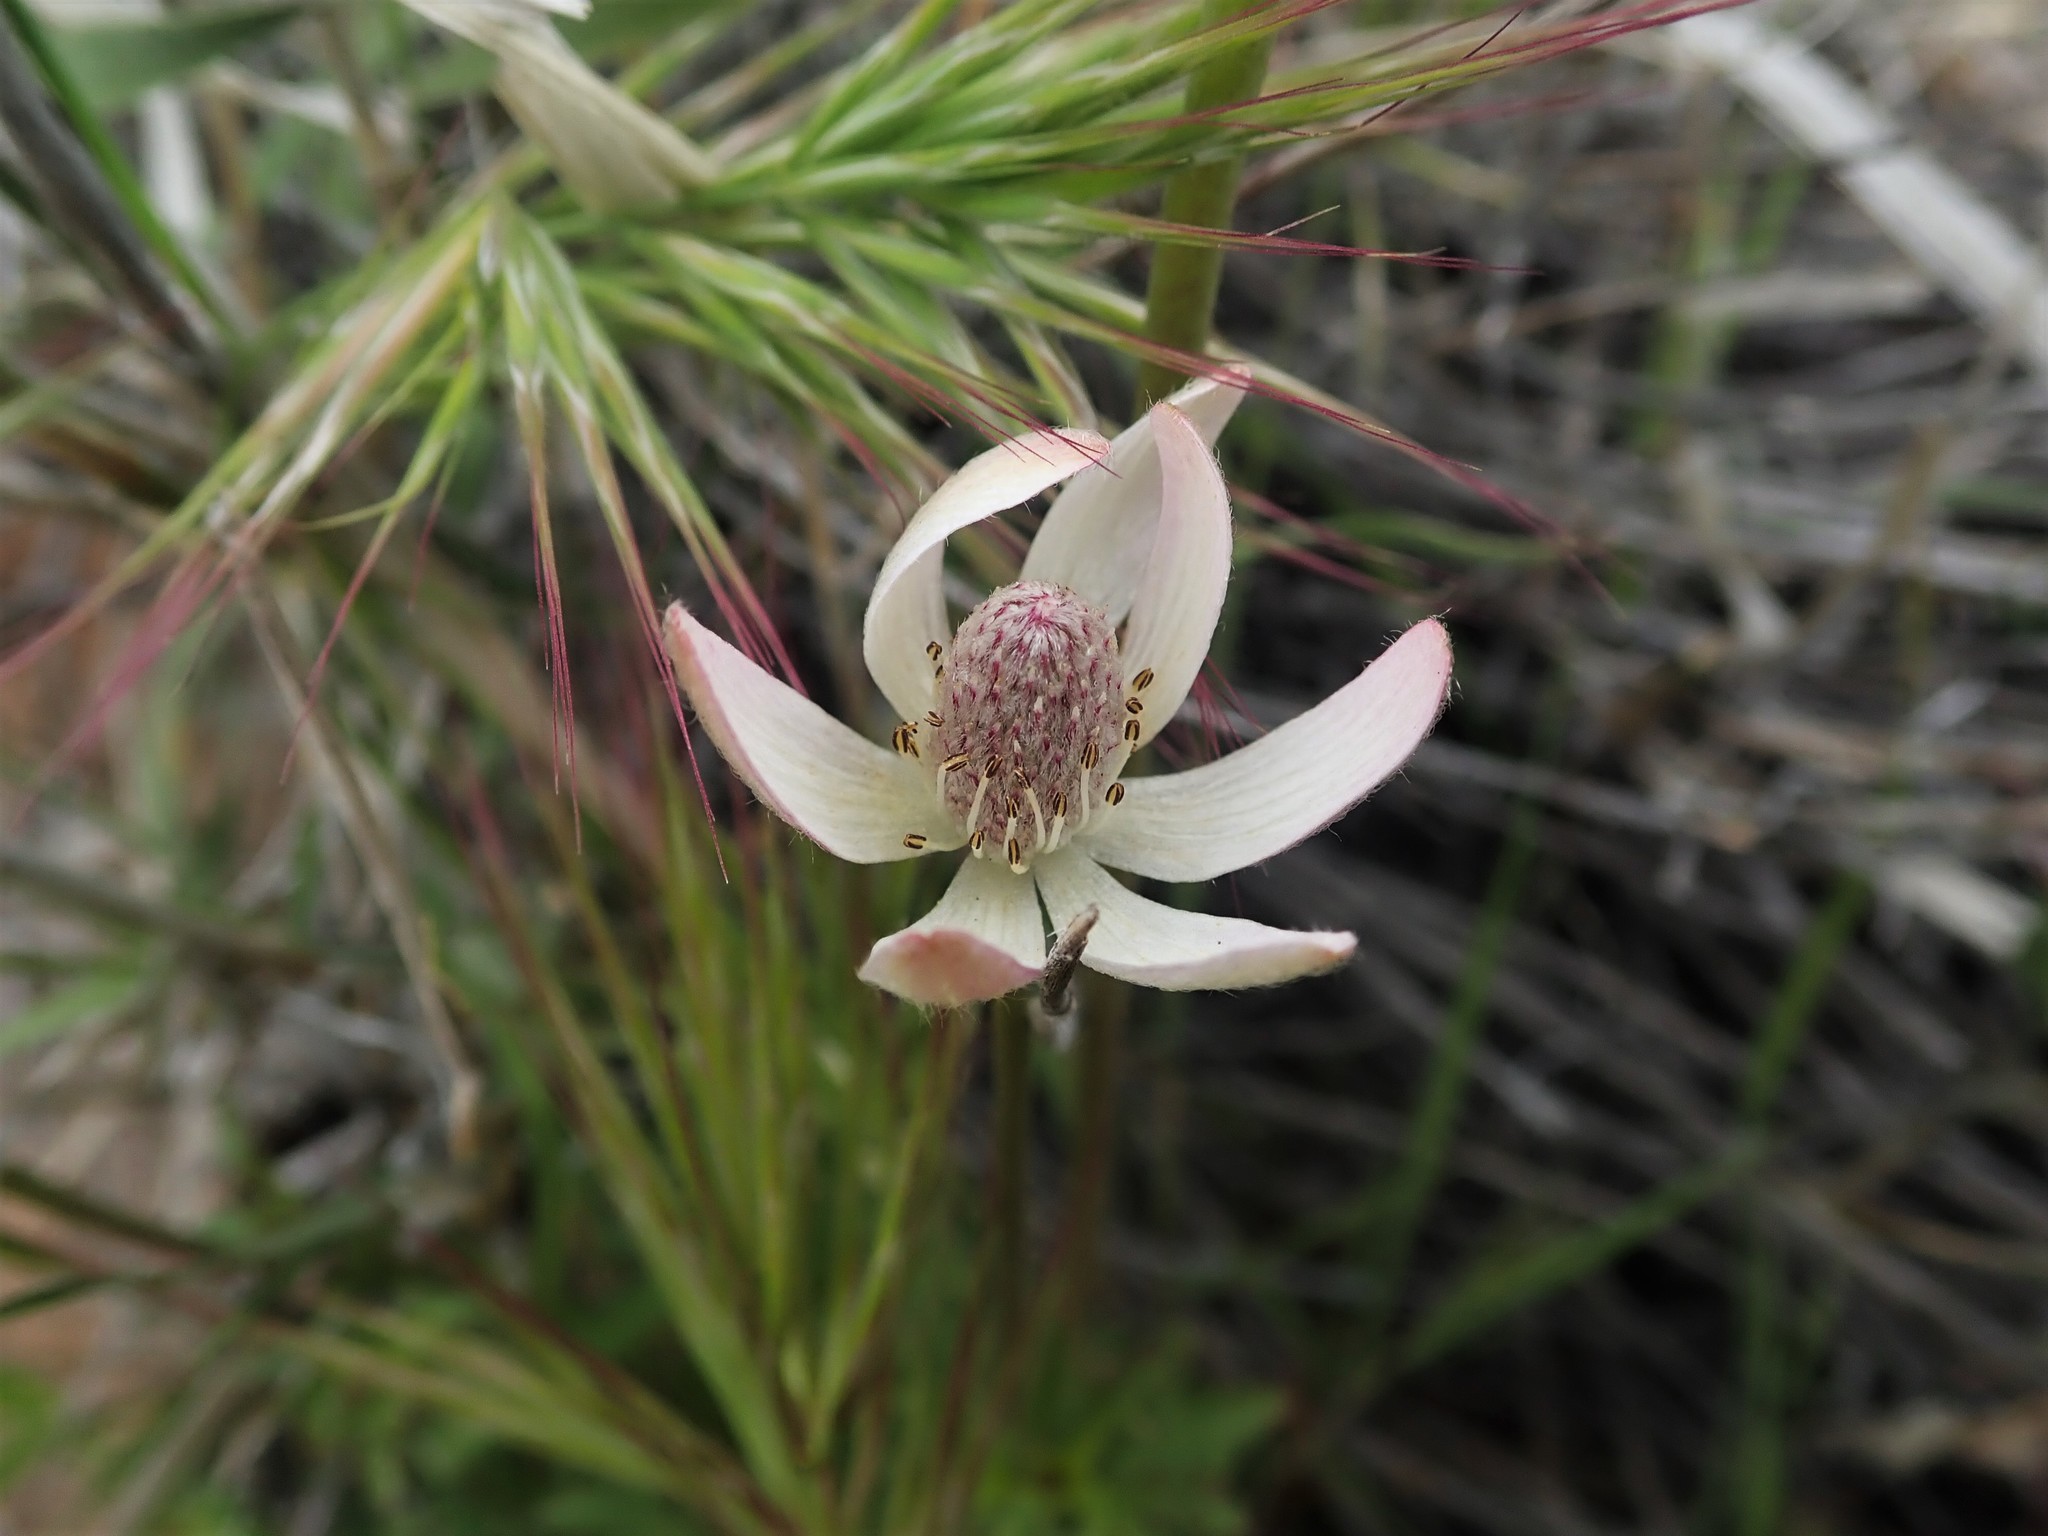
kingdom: Plantae
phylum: Tracheophyta
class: Magnoliopsida
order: Ranunculales
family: Ranunculaceae
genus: Anemone
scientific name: Anemone tuberosa
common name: Desert anemone
